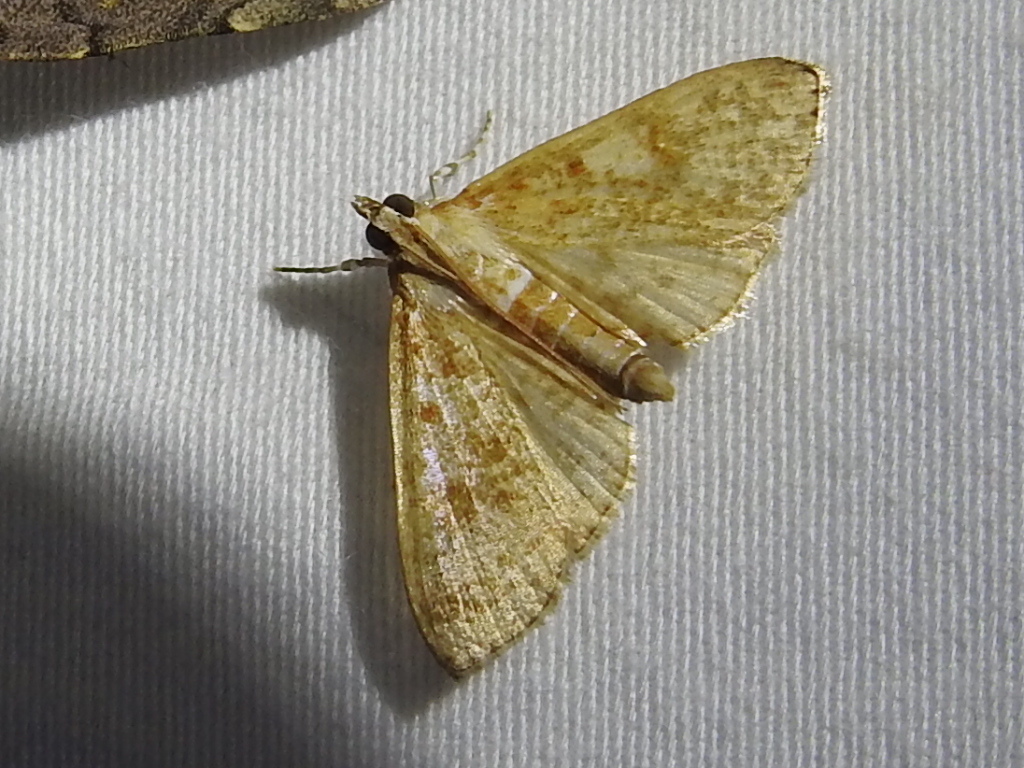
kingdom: Animalia
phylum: Arthropoda
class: Insecta
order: Lepidoptera
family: Crambidae
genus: Palpita
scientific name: Palpita freemanalis
